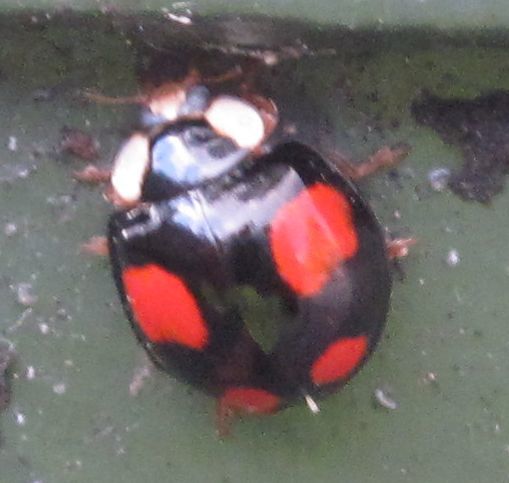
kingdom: Animalia
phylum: Arthropoda
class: Insecta
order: Coleoptera
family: Coccinellidae
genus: Harmonia
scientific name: Harmonia axyridis
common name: Harlequin ladybird
